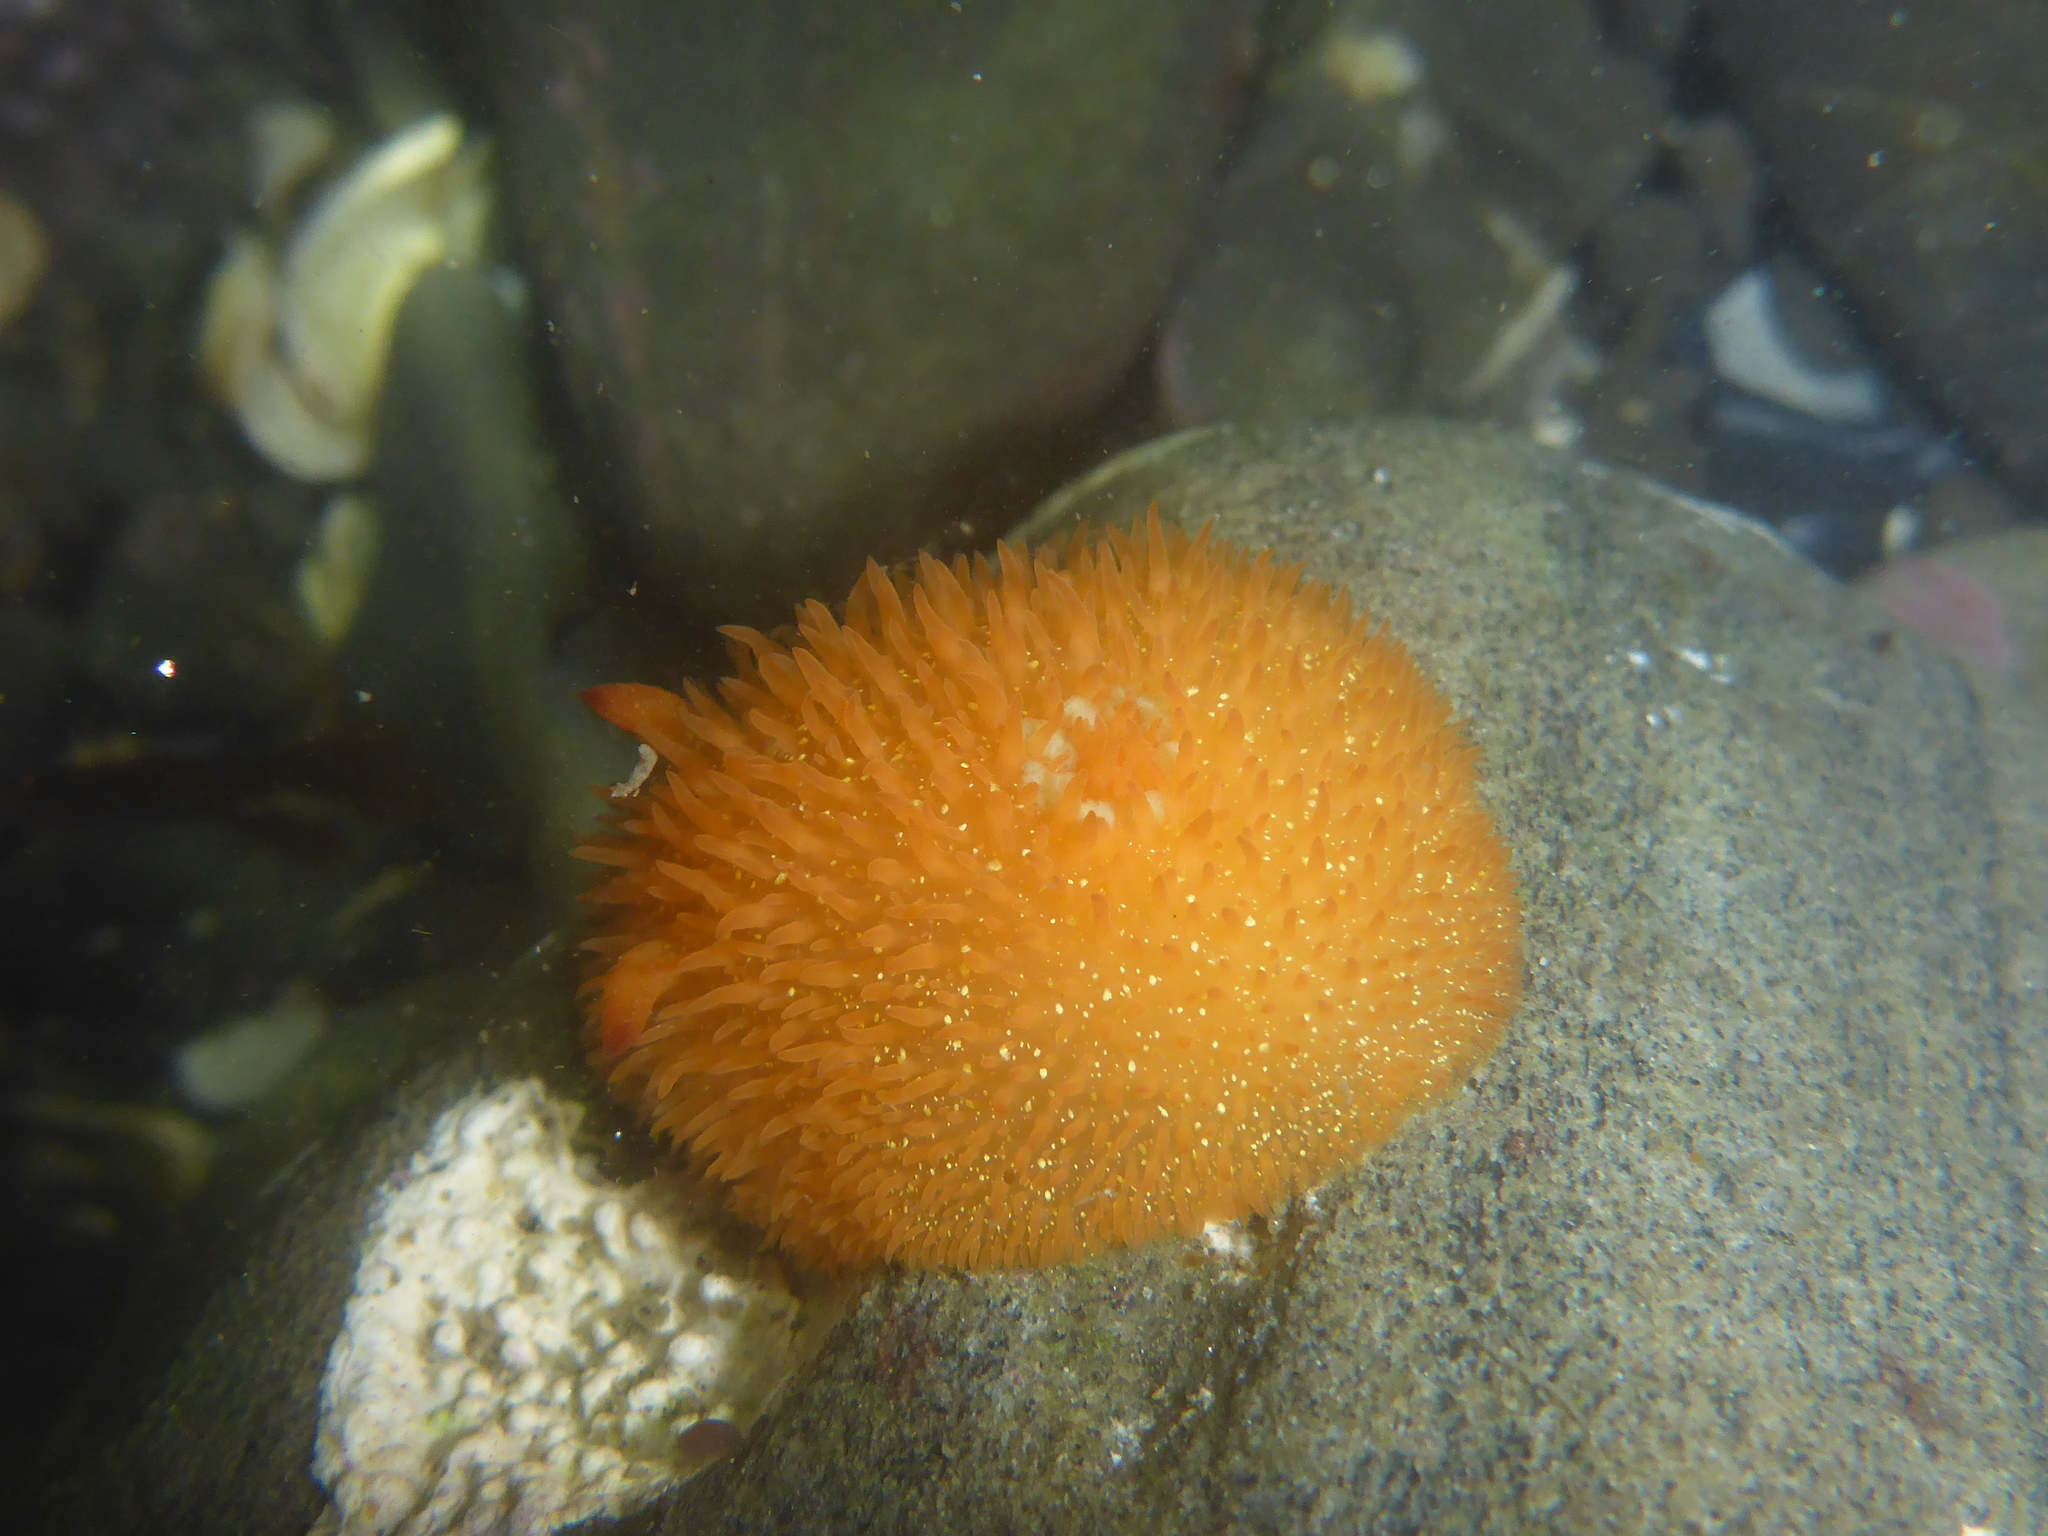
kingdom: Animalia
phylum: Mollusca
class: Gastropoda
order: Nudibranchia
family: Onchidorididae
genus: Acanthodoris
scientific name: Acanthodoris lutea
